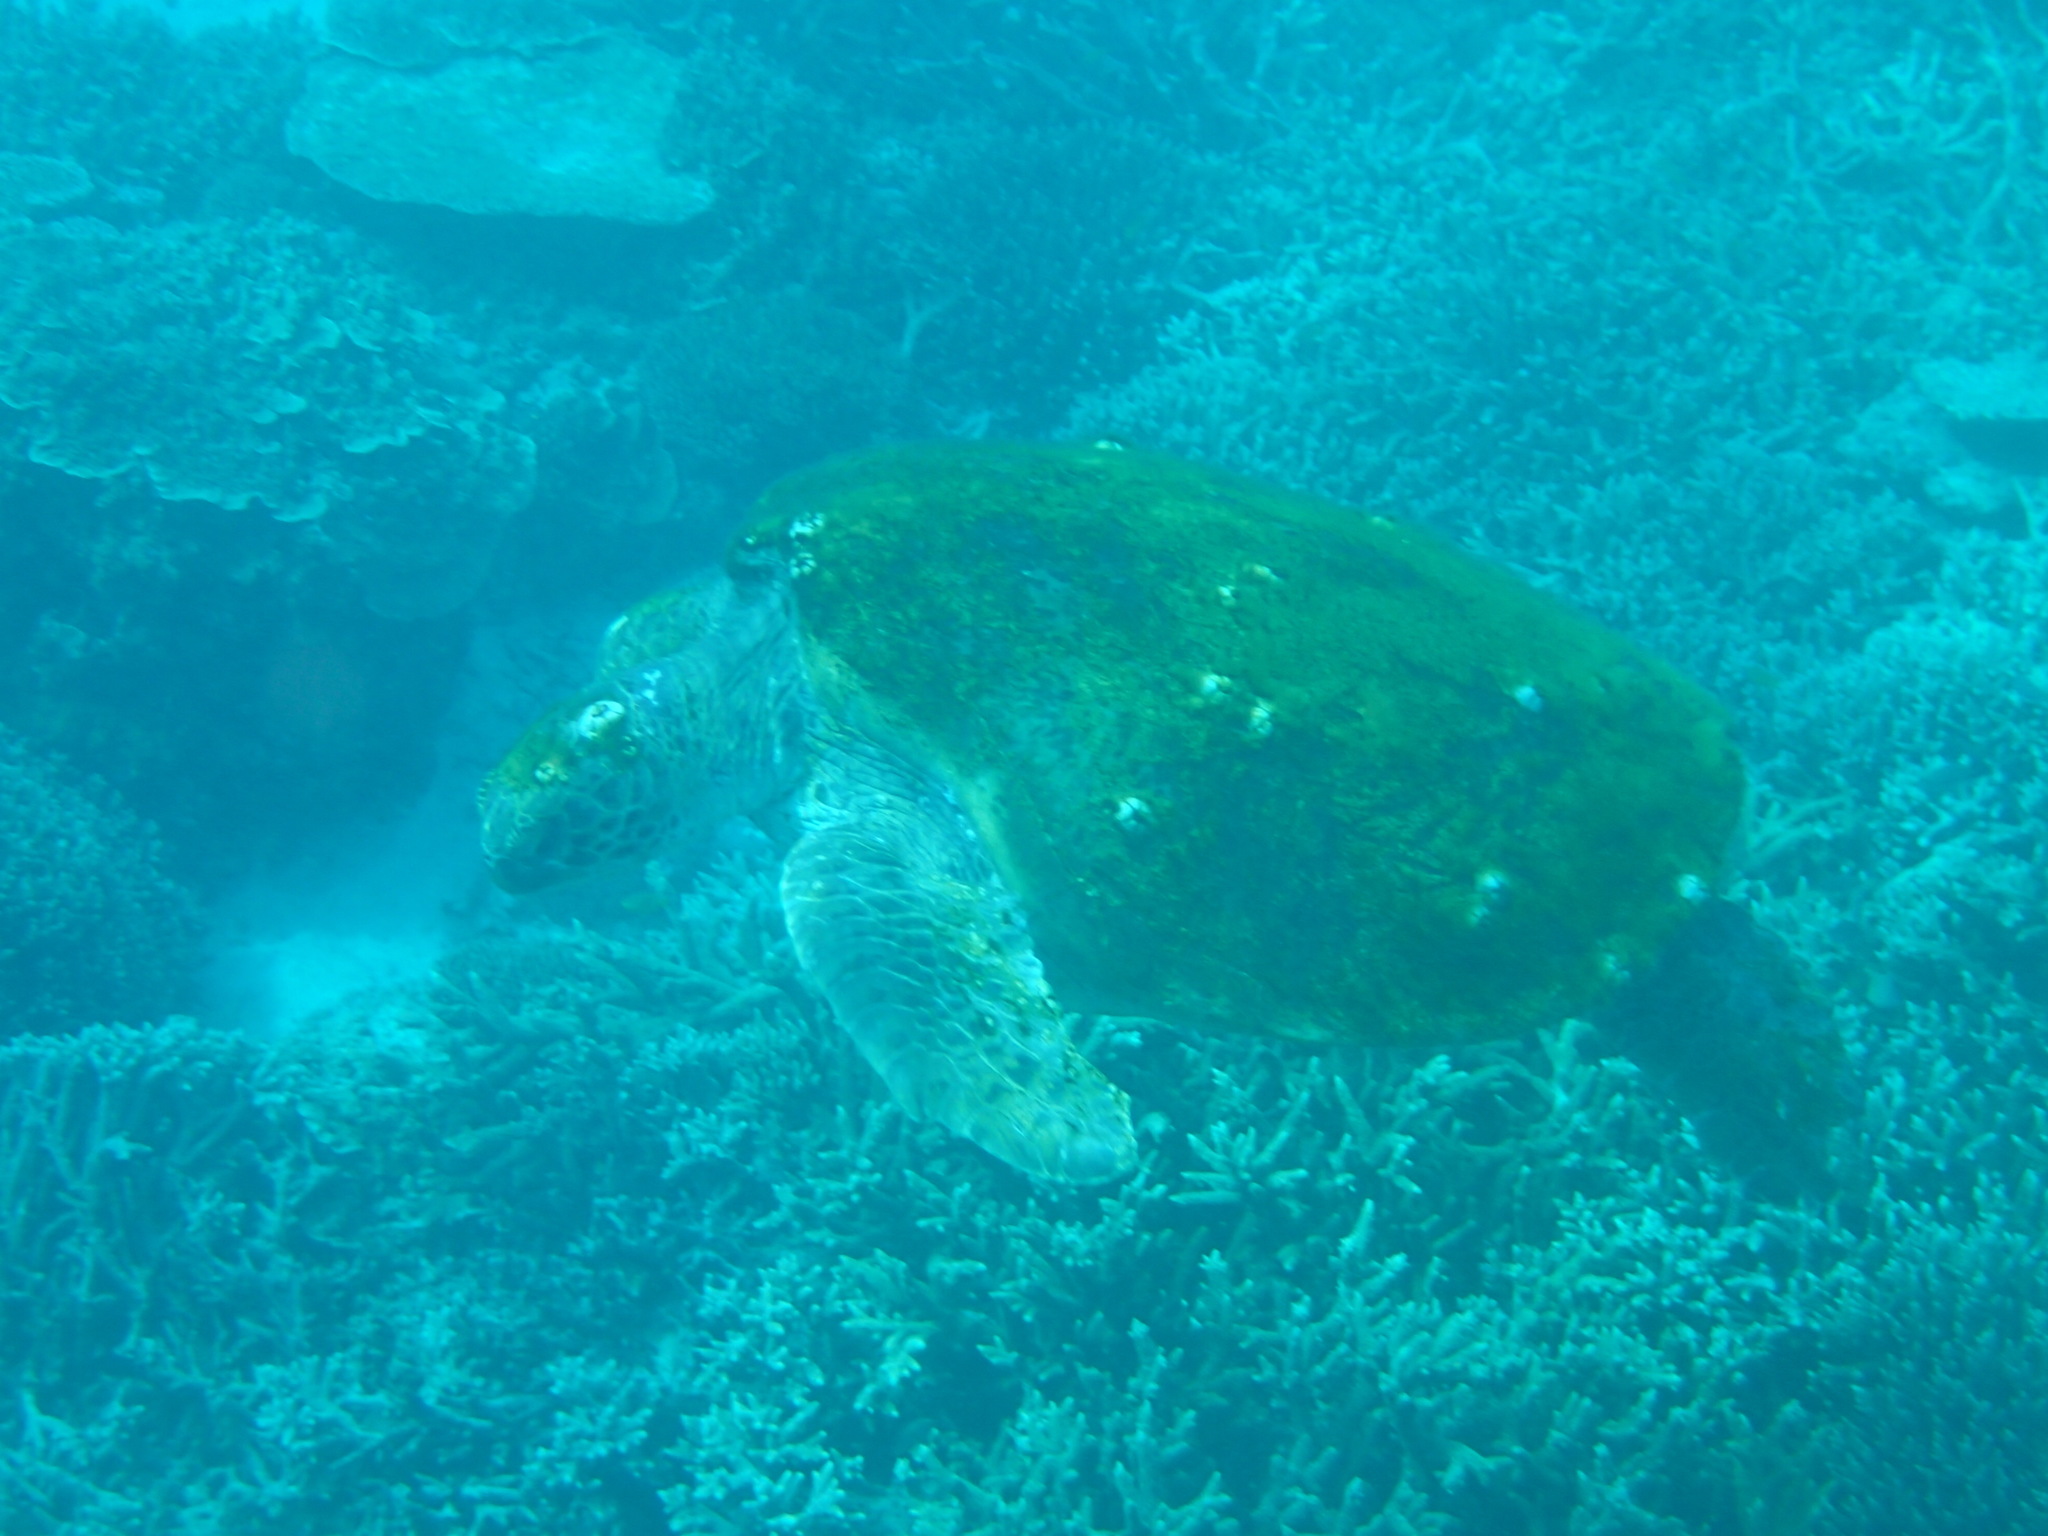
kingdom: Animalia
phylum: Chordata
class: Testudines
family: Cheloniidae
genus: Chelonia
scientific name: Chelonia mydas
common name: Green turtle
